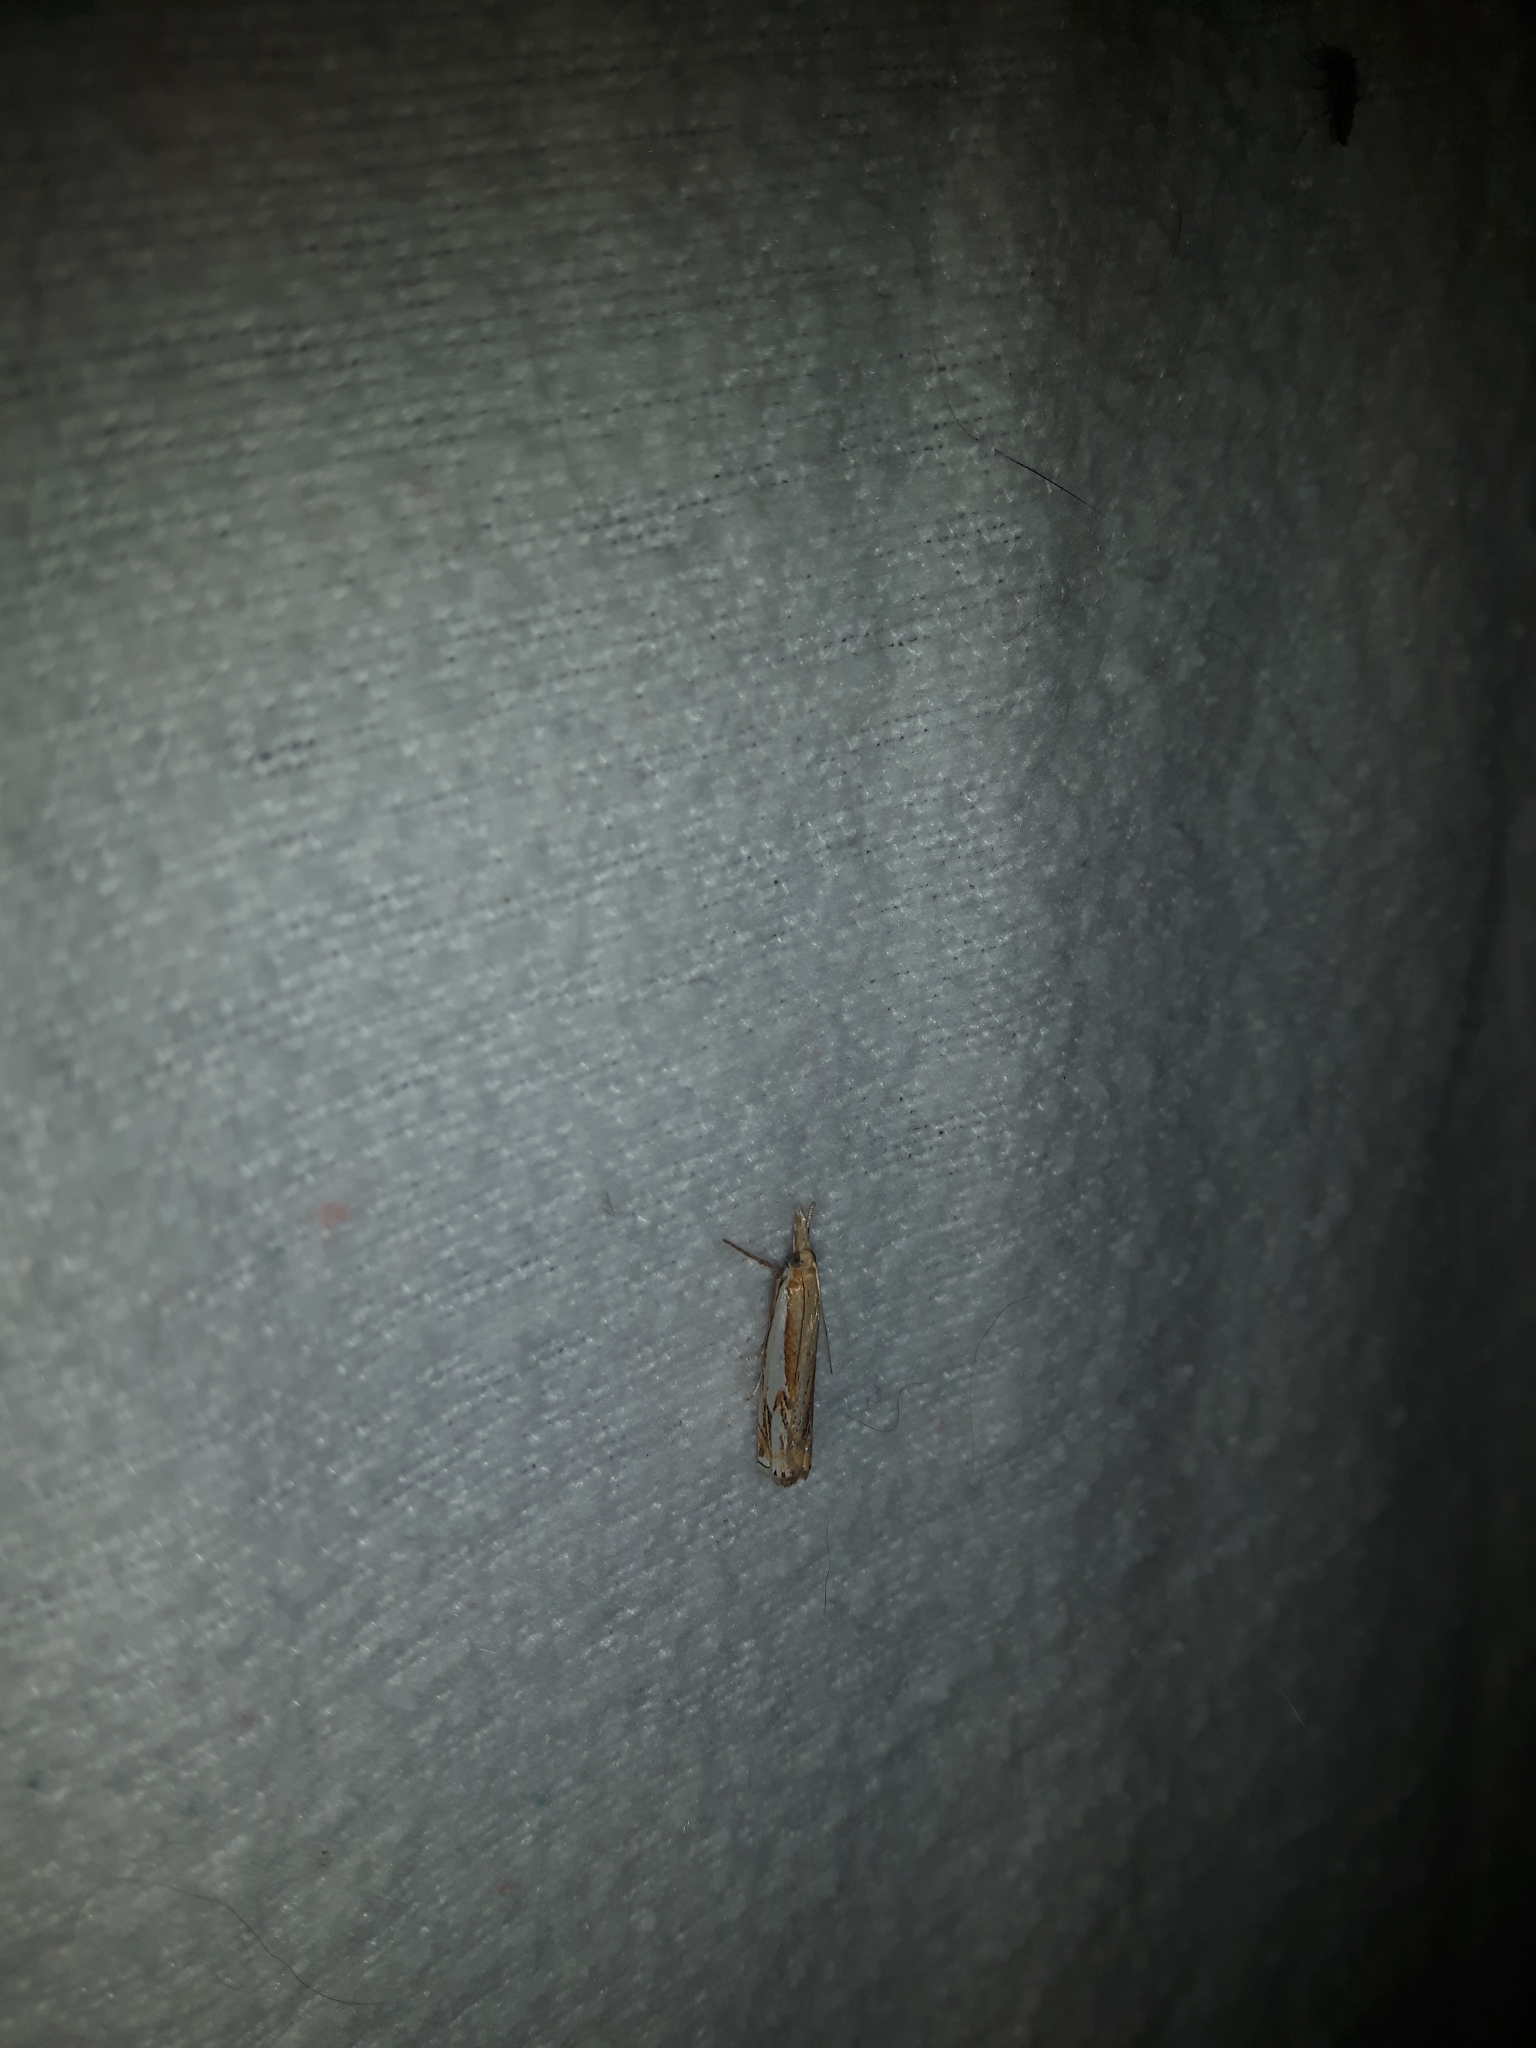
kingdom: Animalia
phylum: Arthropoda
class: Insecta
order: Lepidoptera
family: Crambidae
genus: Crambus
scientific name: Crambus agitatellus
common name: Double-banded grass-veneer
